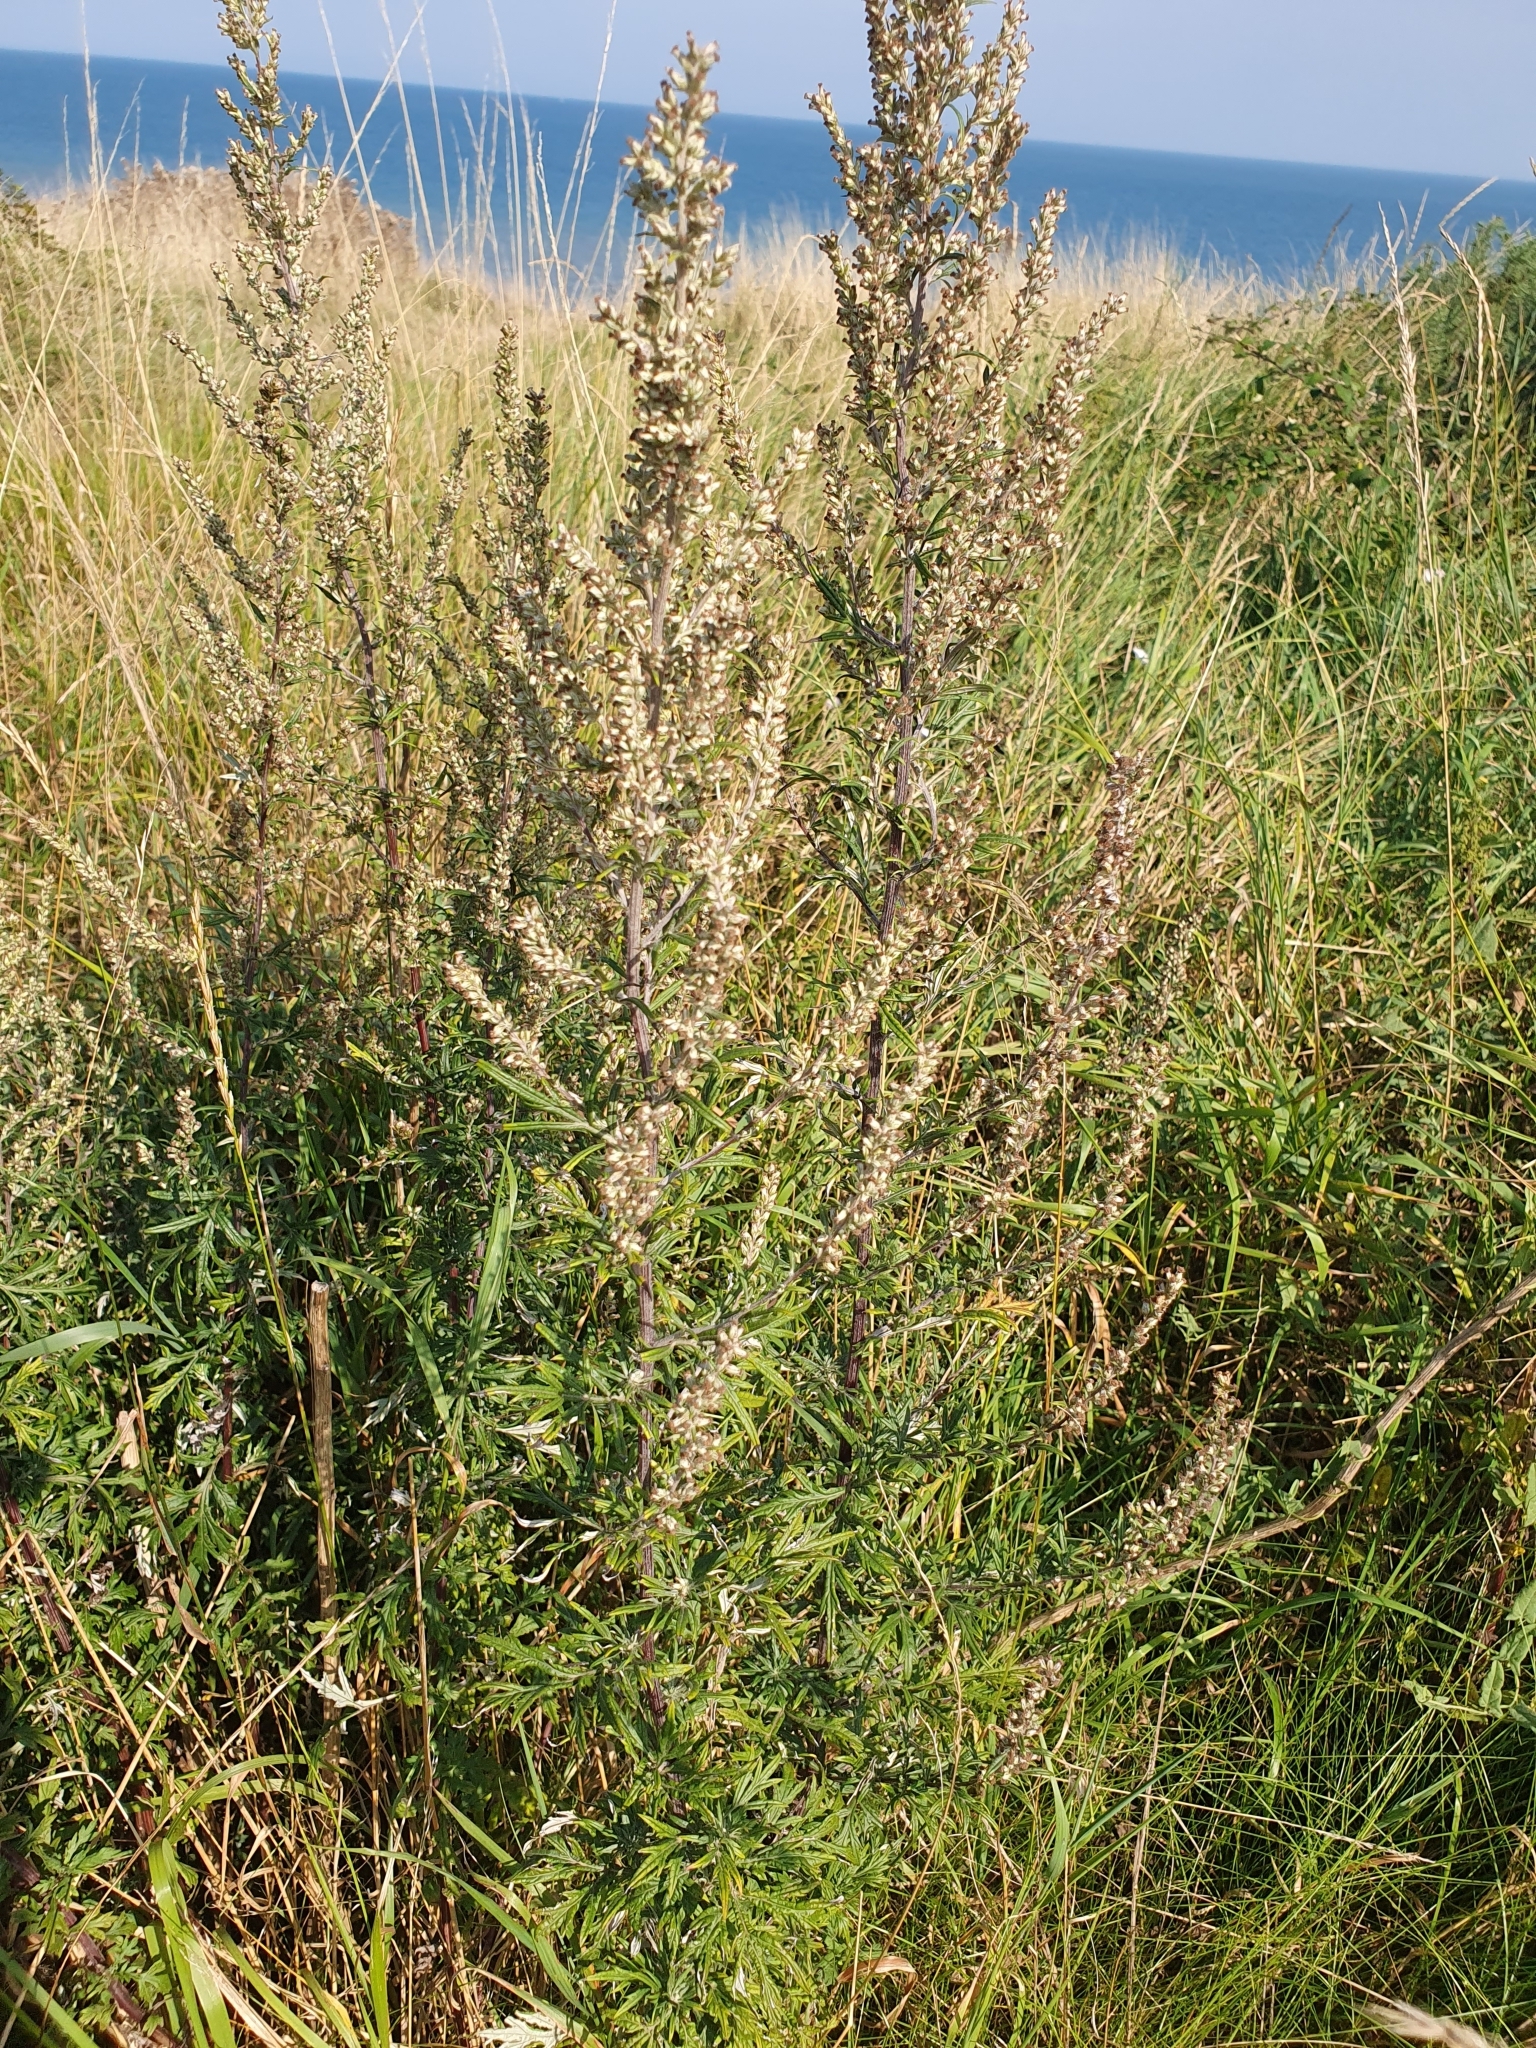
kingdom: Plantae
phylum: Tracheophyta
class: Magnoliopsida
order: Asterales
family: Asteraceae
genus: Artemisia
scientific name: Artemisia vulgaris
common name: Mugwort
